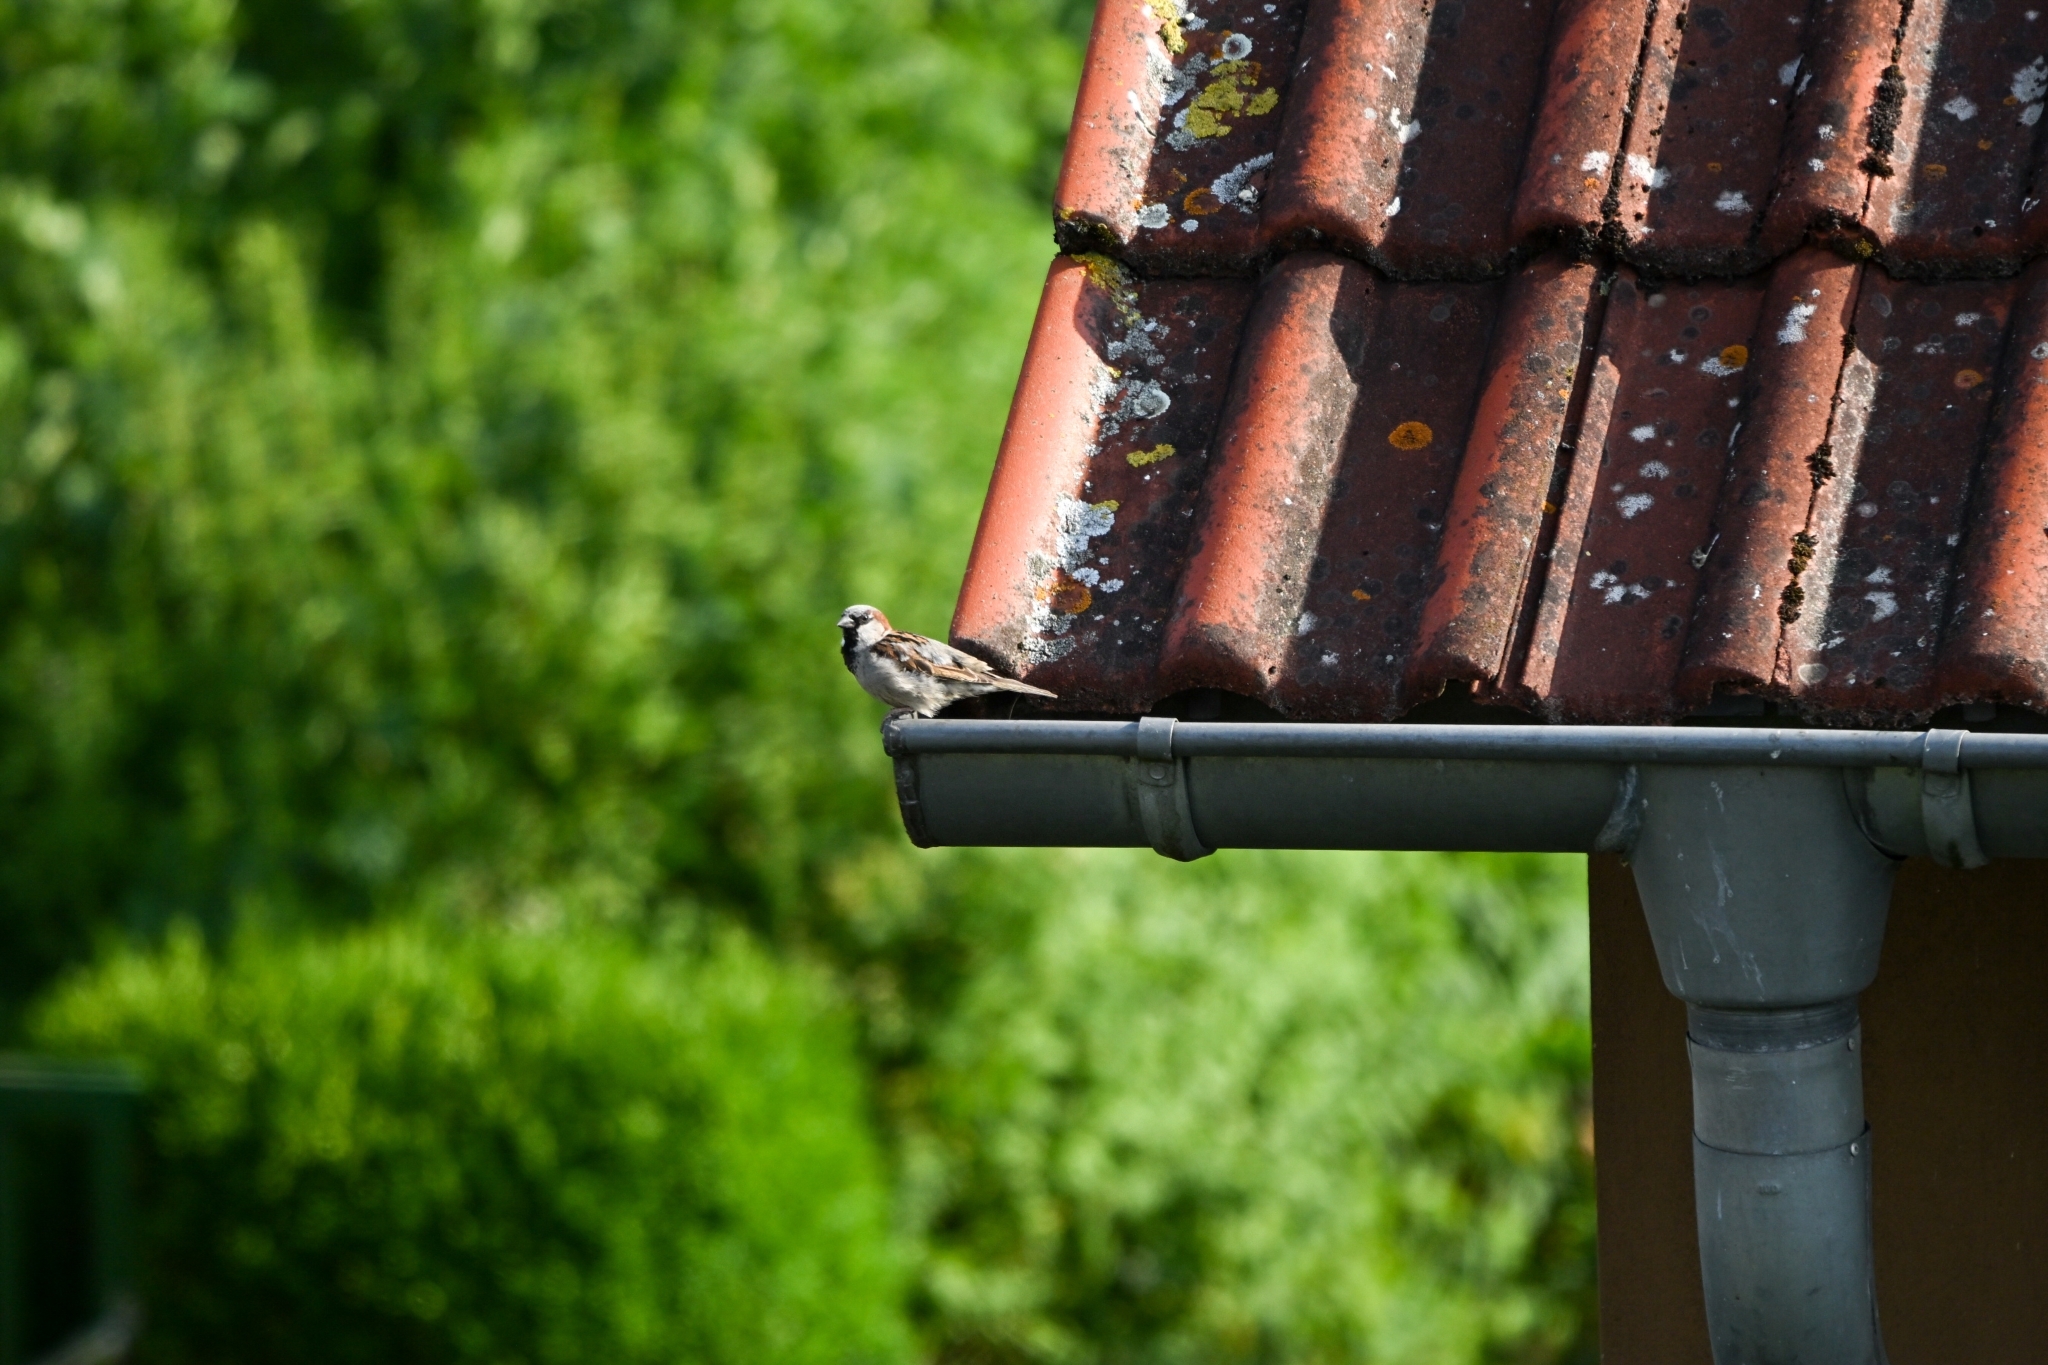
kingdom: Animalia
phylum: Chordata
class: Aves
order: Passeriformes
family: Passeridae
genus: Passer
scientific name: Passer domesticus
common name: House sparrow
